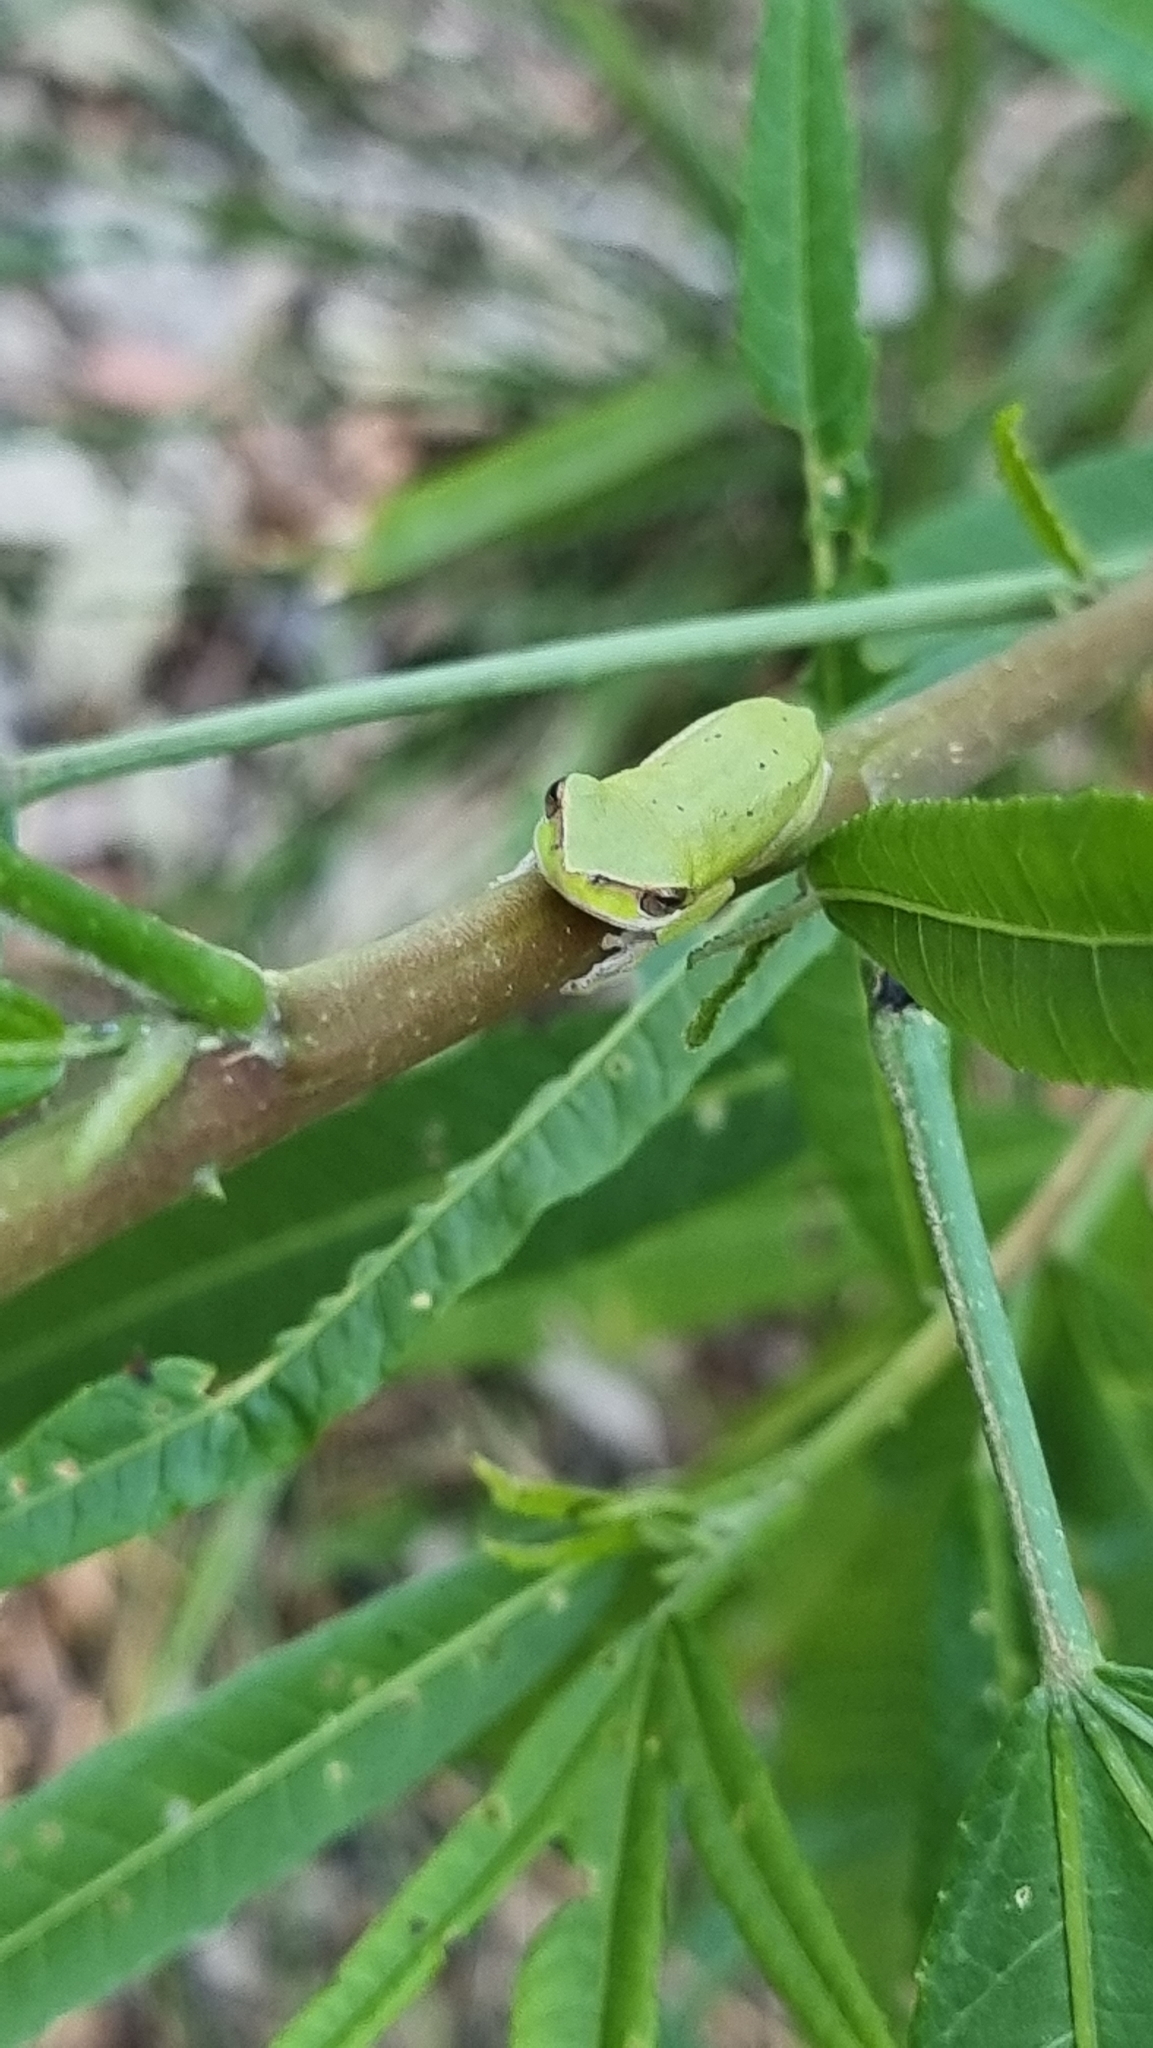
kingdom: Animalia
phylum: Chordata
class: Amphibia
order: Anura
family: Pelodryadidae
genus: Litoria
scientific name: Litoria fallax
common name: Eastern dwarf treefrog
